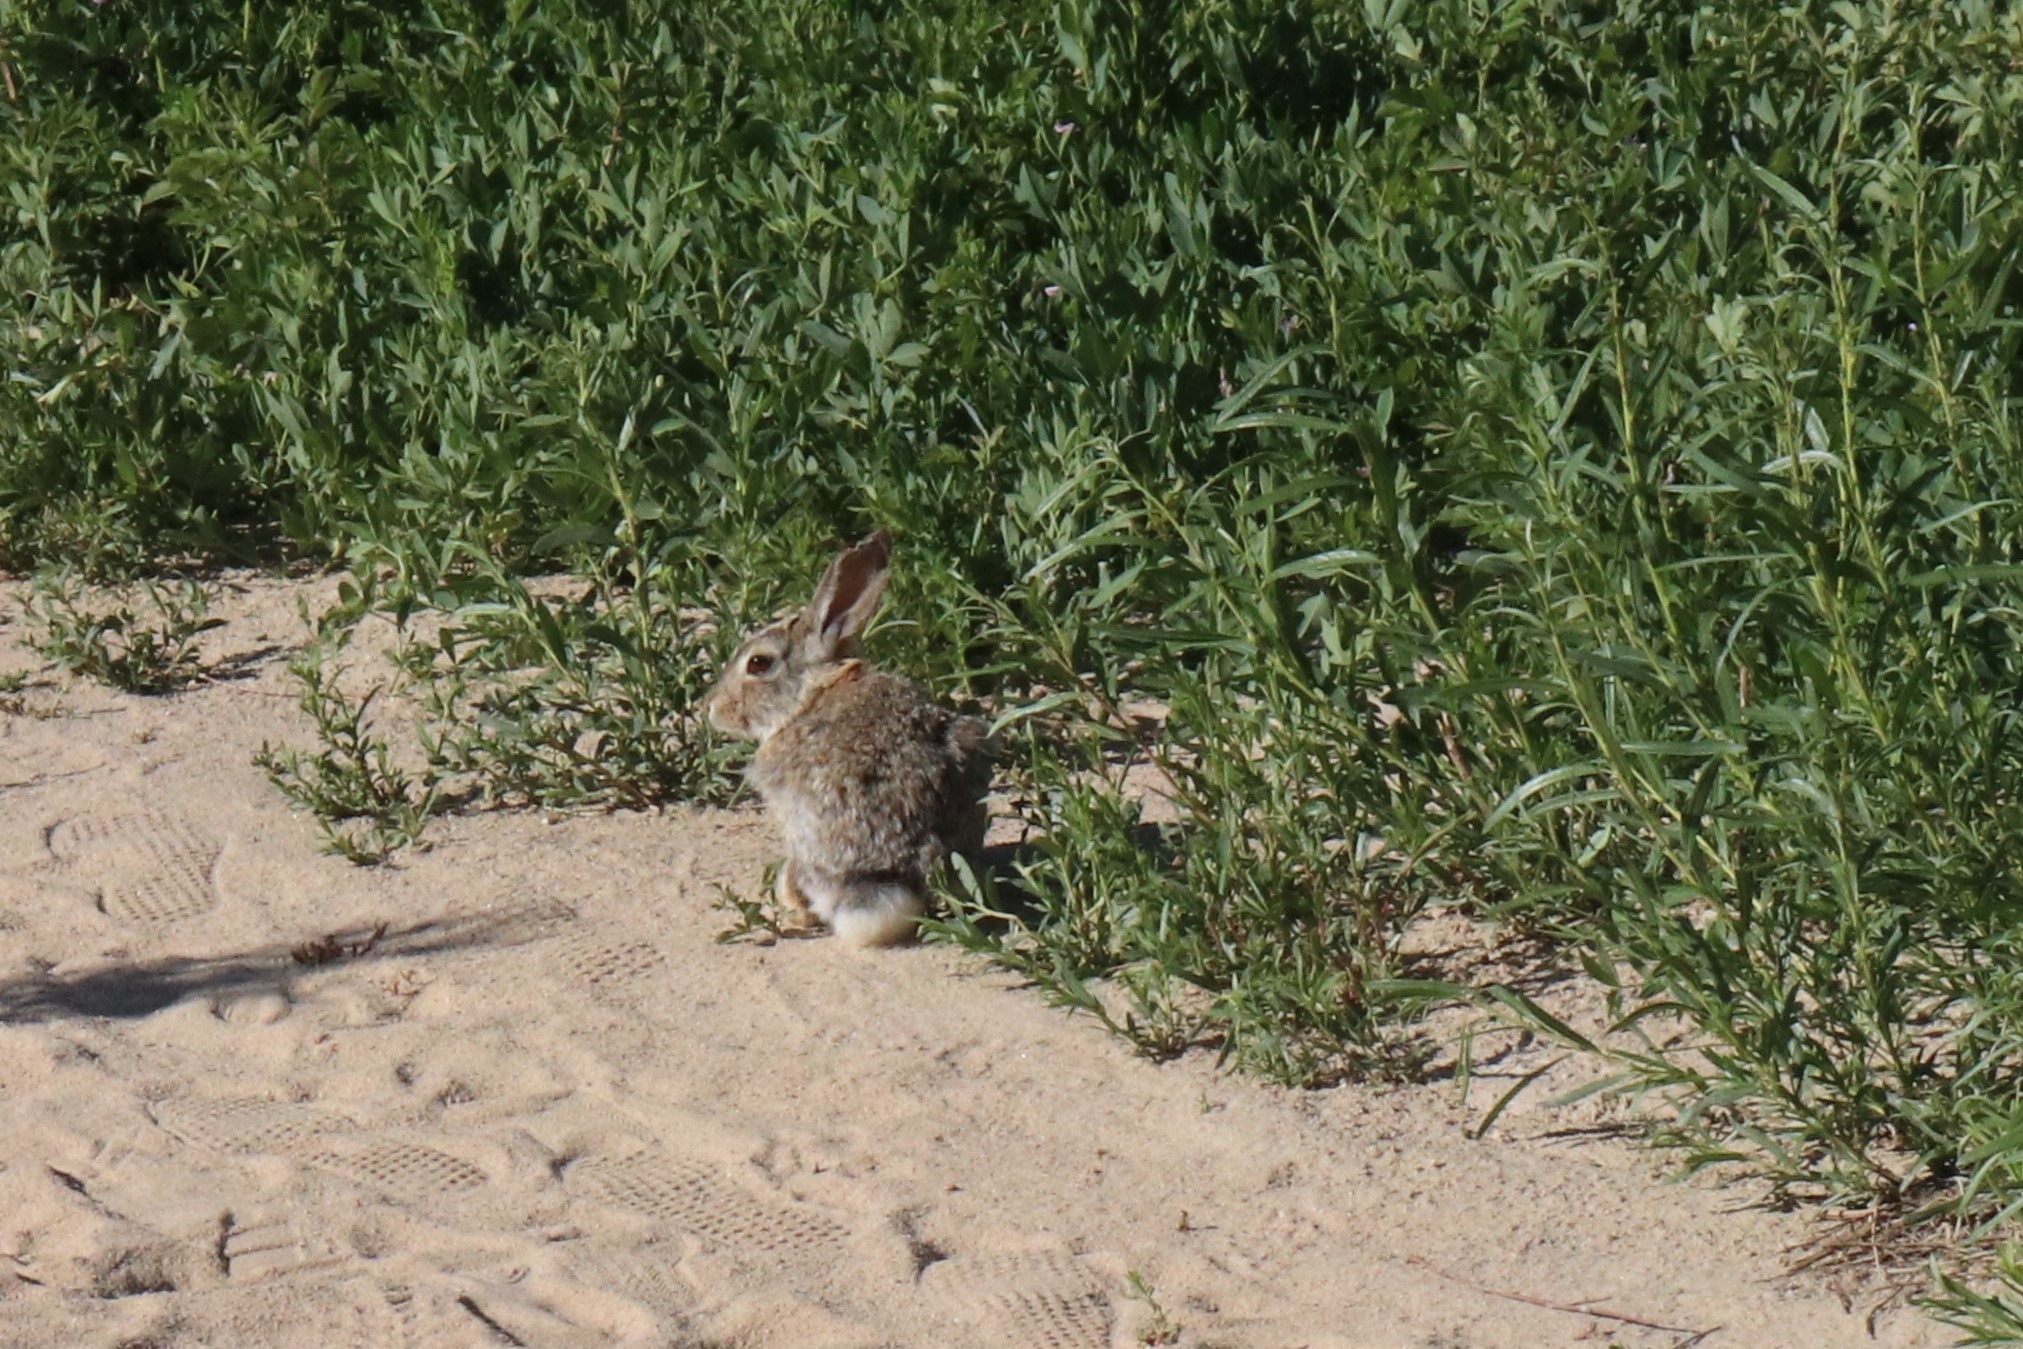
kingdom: Animalia
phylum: Chordata
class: Mammalia
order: Lagomorpha
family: Leporidae
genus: Sylvilagus
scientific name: Sylvilagus audubonii
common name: Desert cottontail
